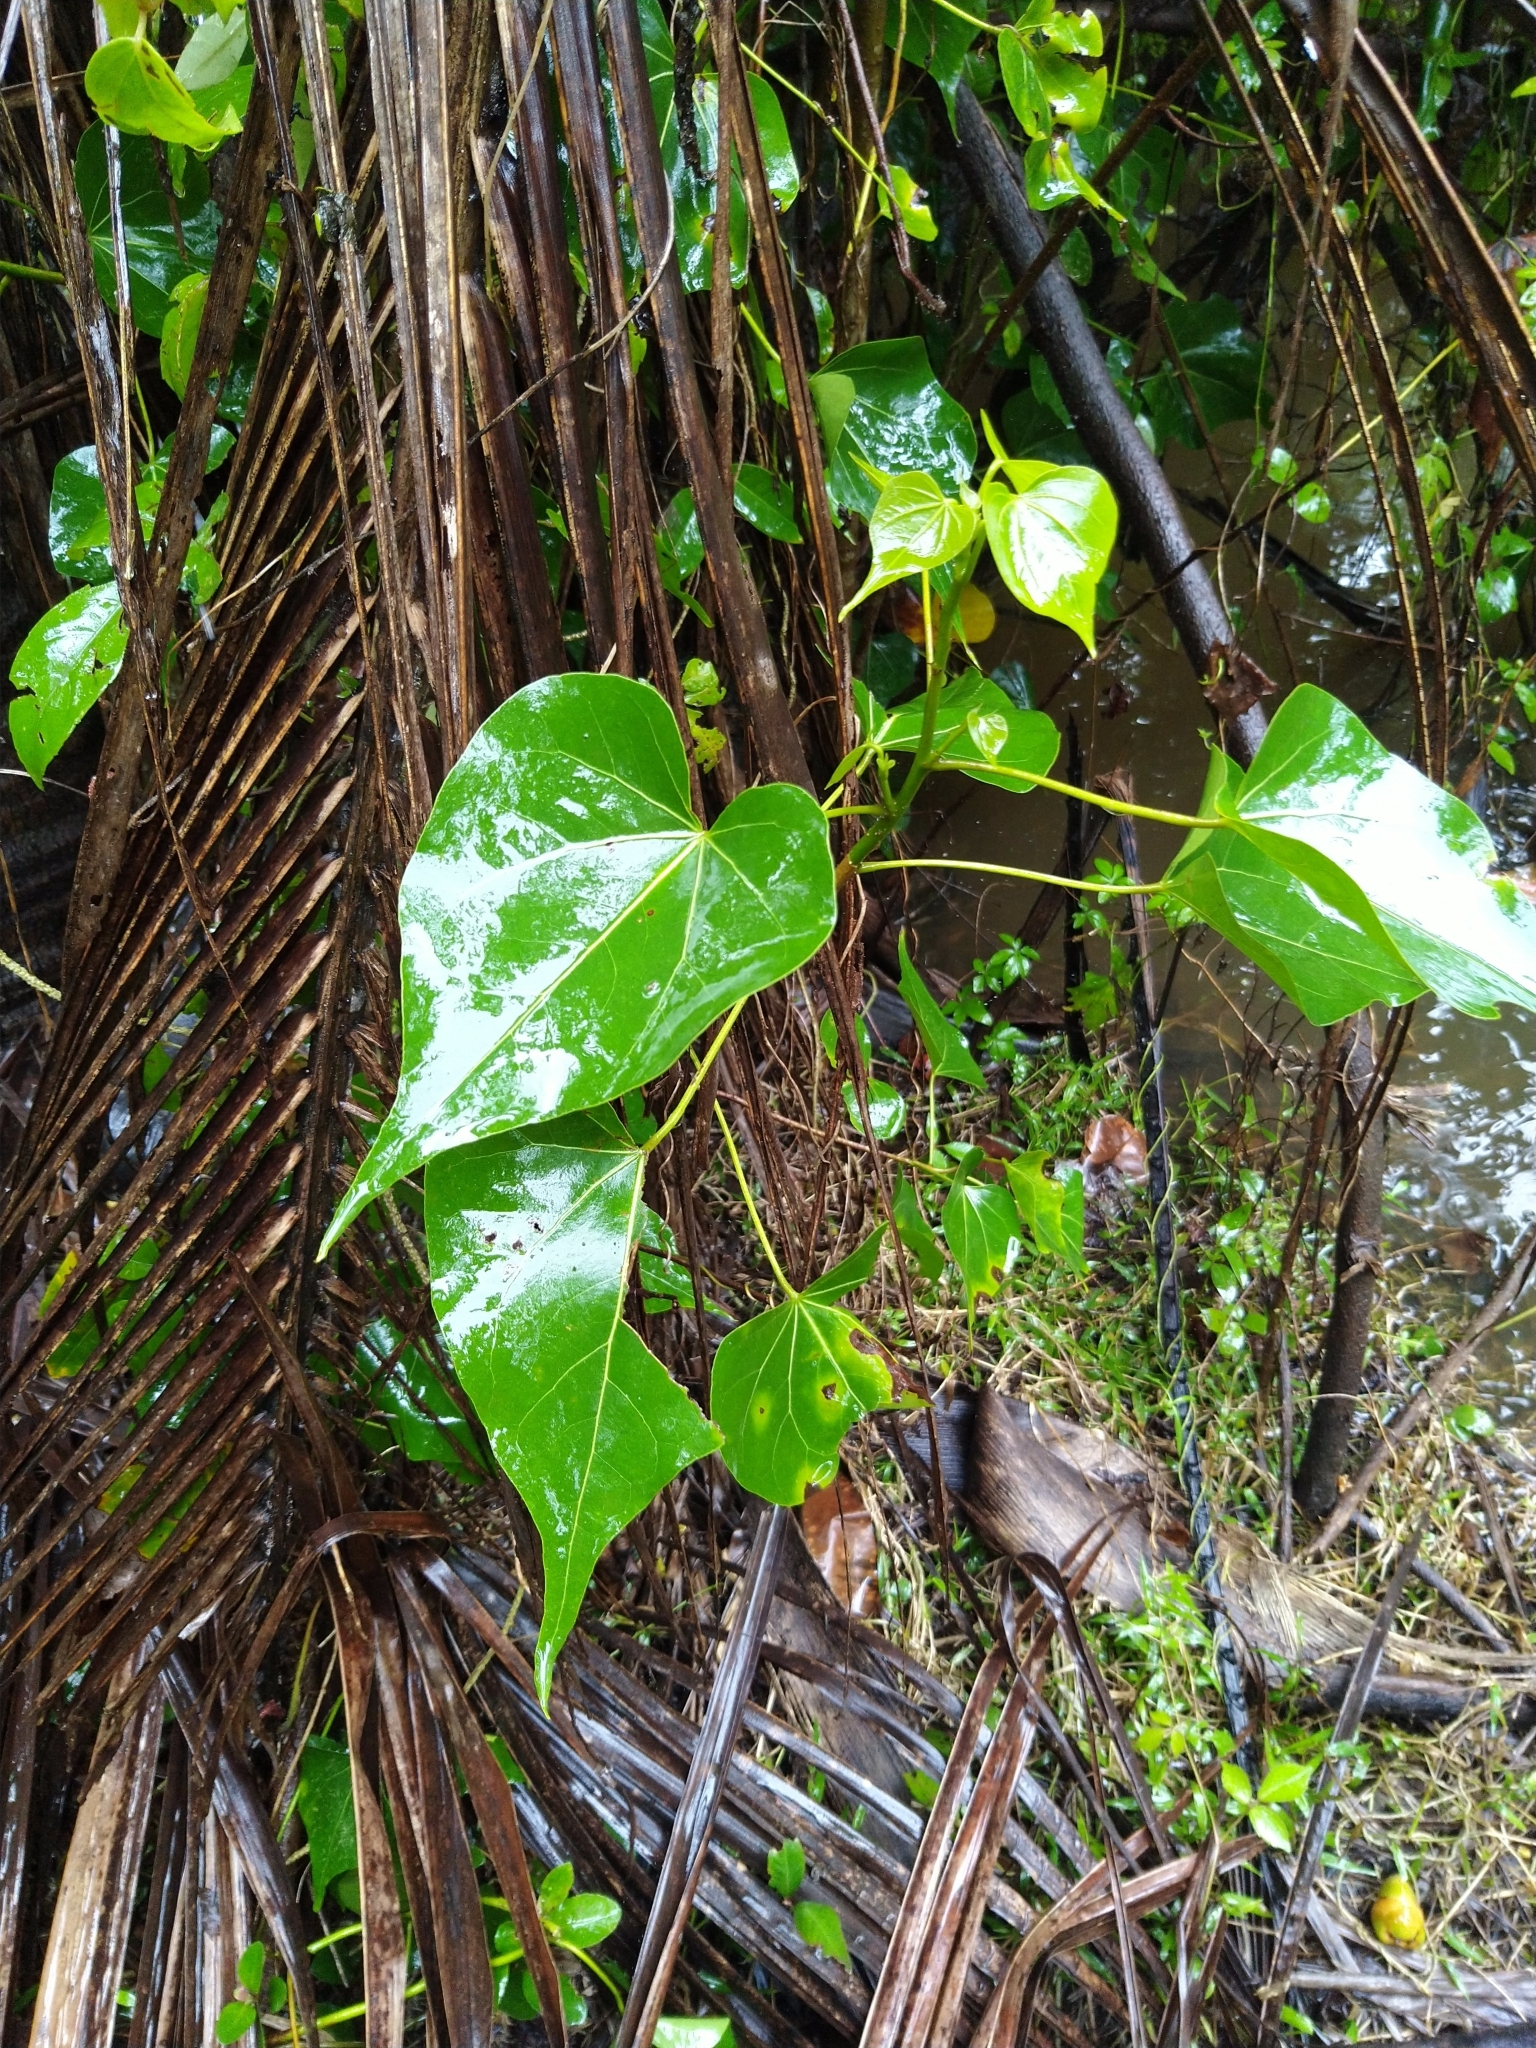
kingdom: Plantae
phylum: Tracheophyta
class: Magnoliopsida
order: Malvales
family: Malvaceae
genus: Thespesia
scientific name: Thespesia populnea
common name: Seaside mahoe
